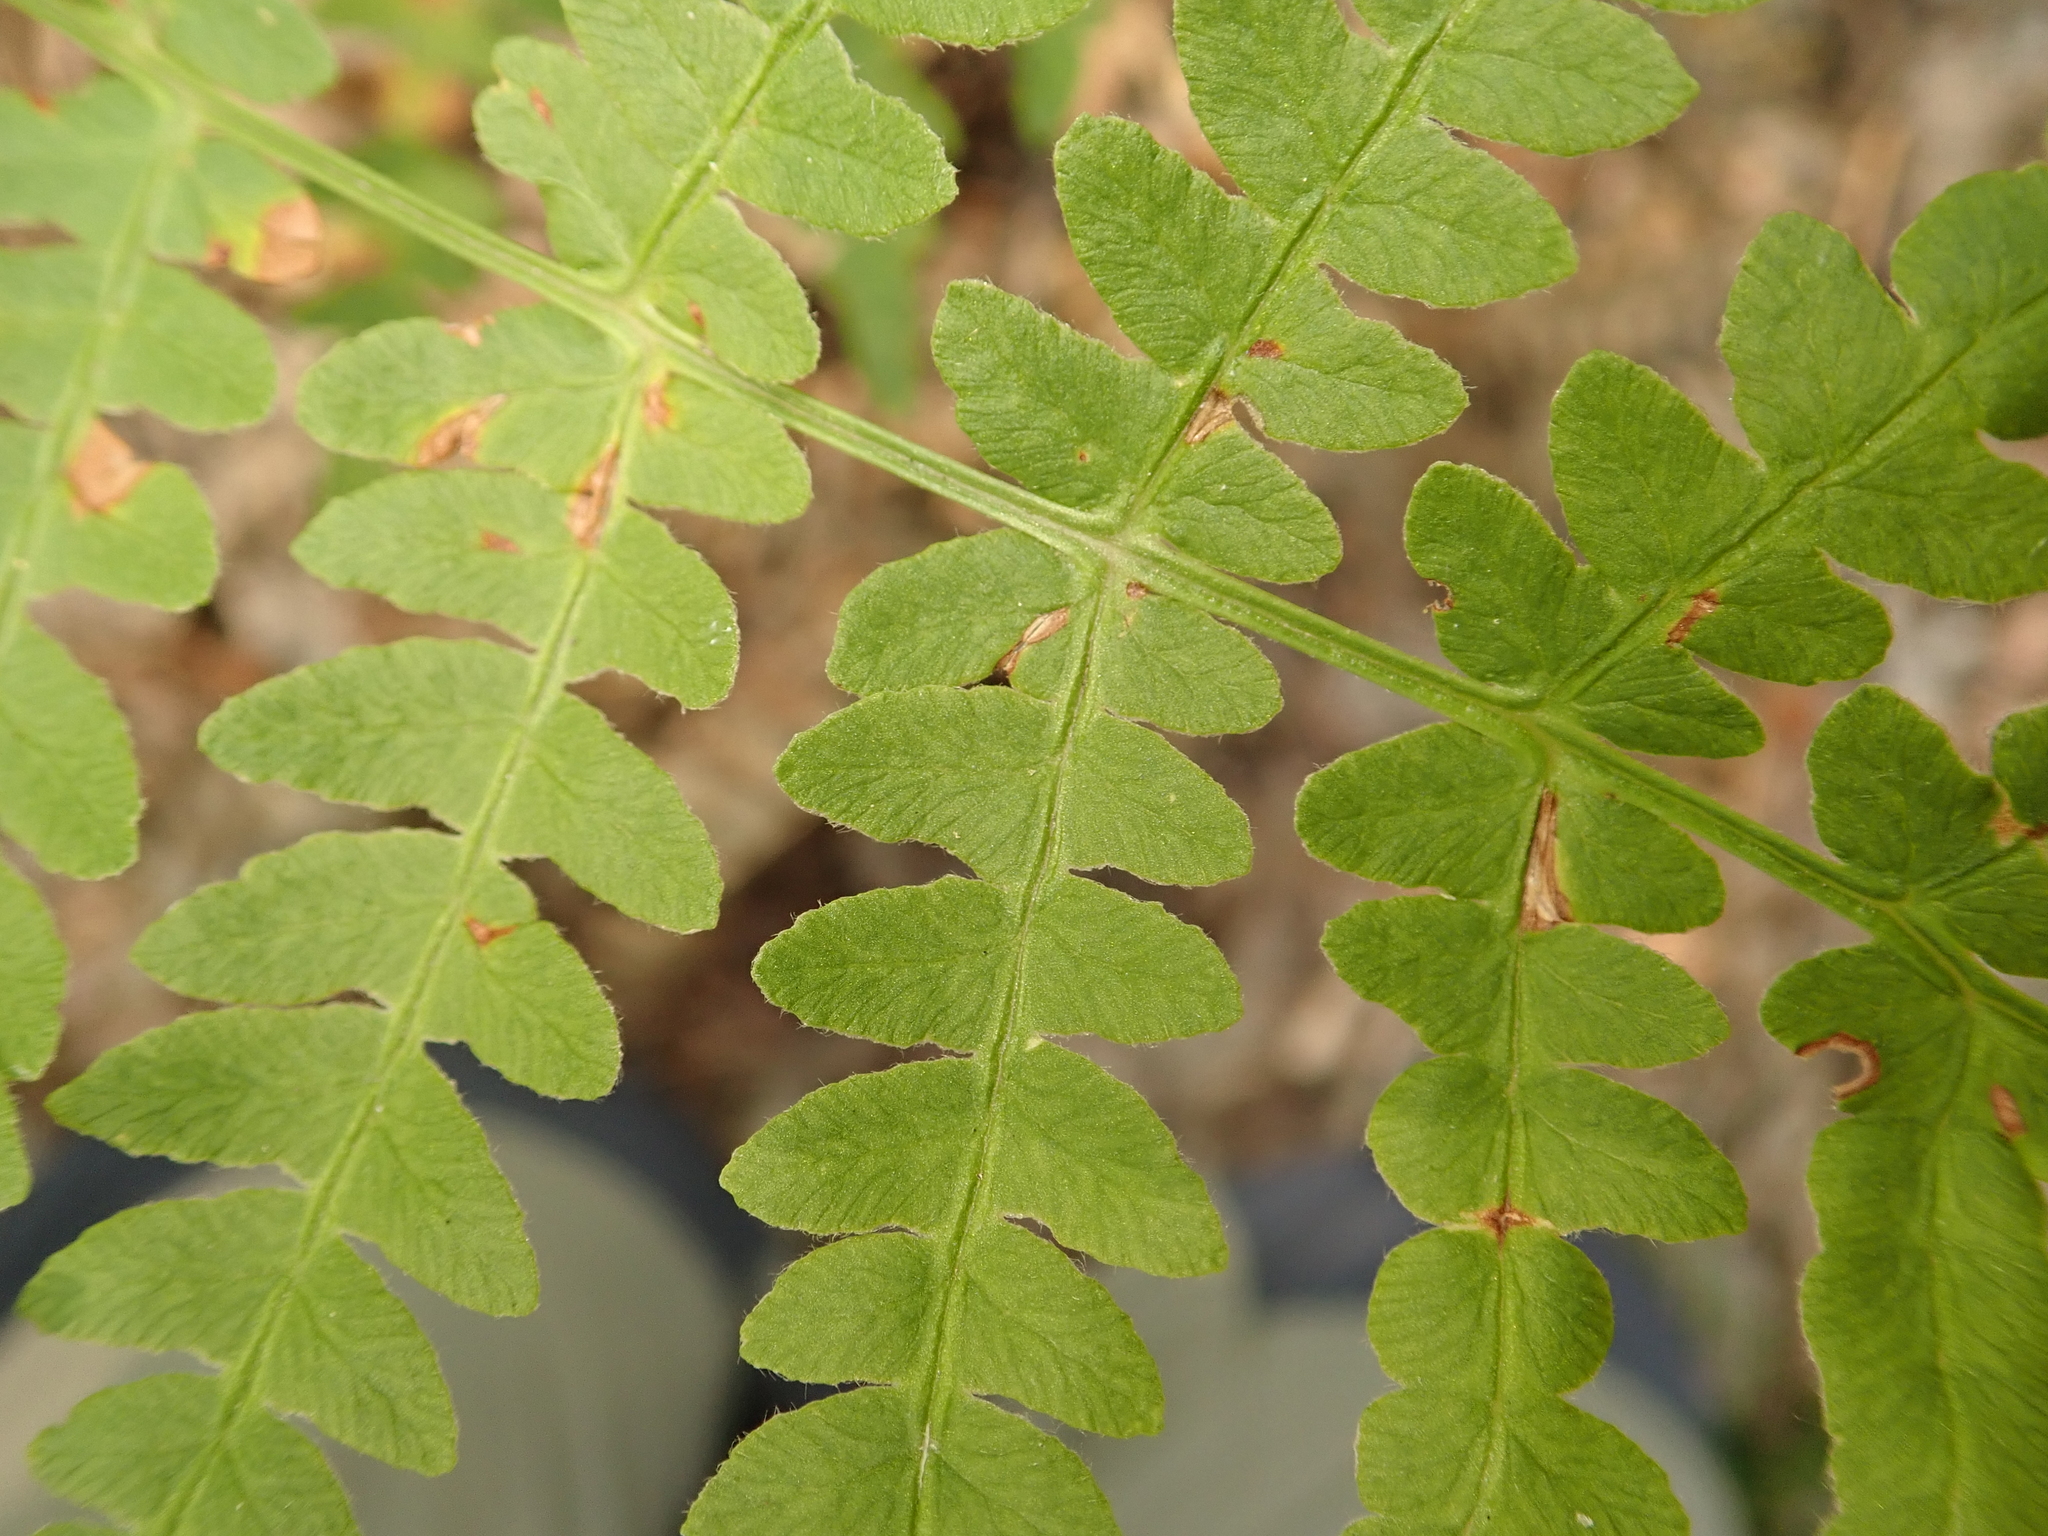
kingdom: Plantae
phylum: Tracheophyta
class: Polypodiopsida
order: Polypodiales
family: Dennstaedtiaceae
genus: Pteridium
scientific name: Pteridium aquilinum
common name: Bracken
